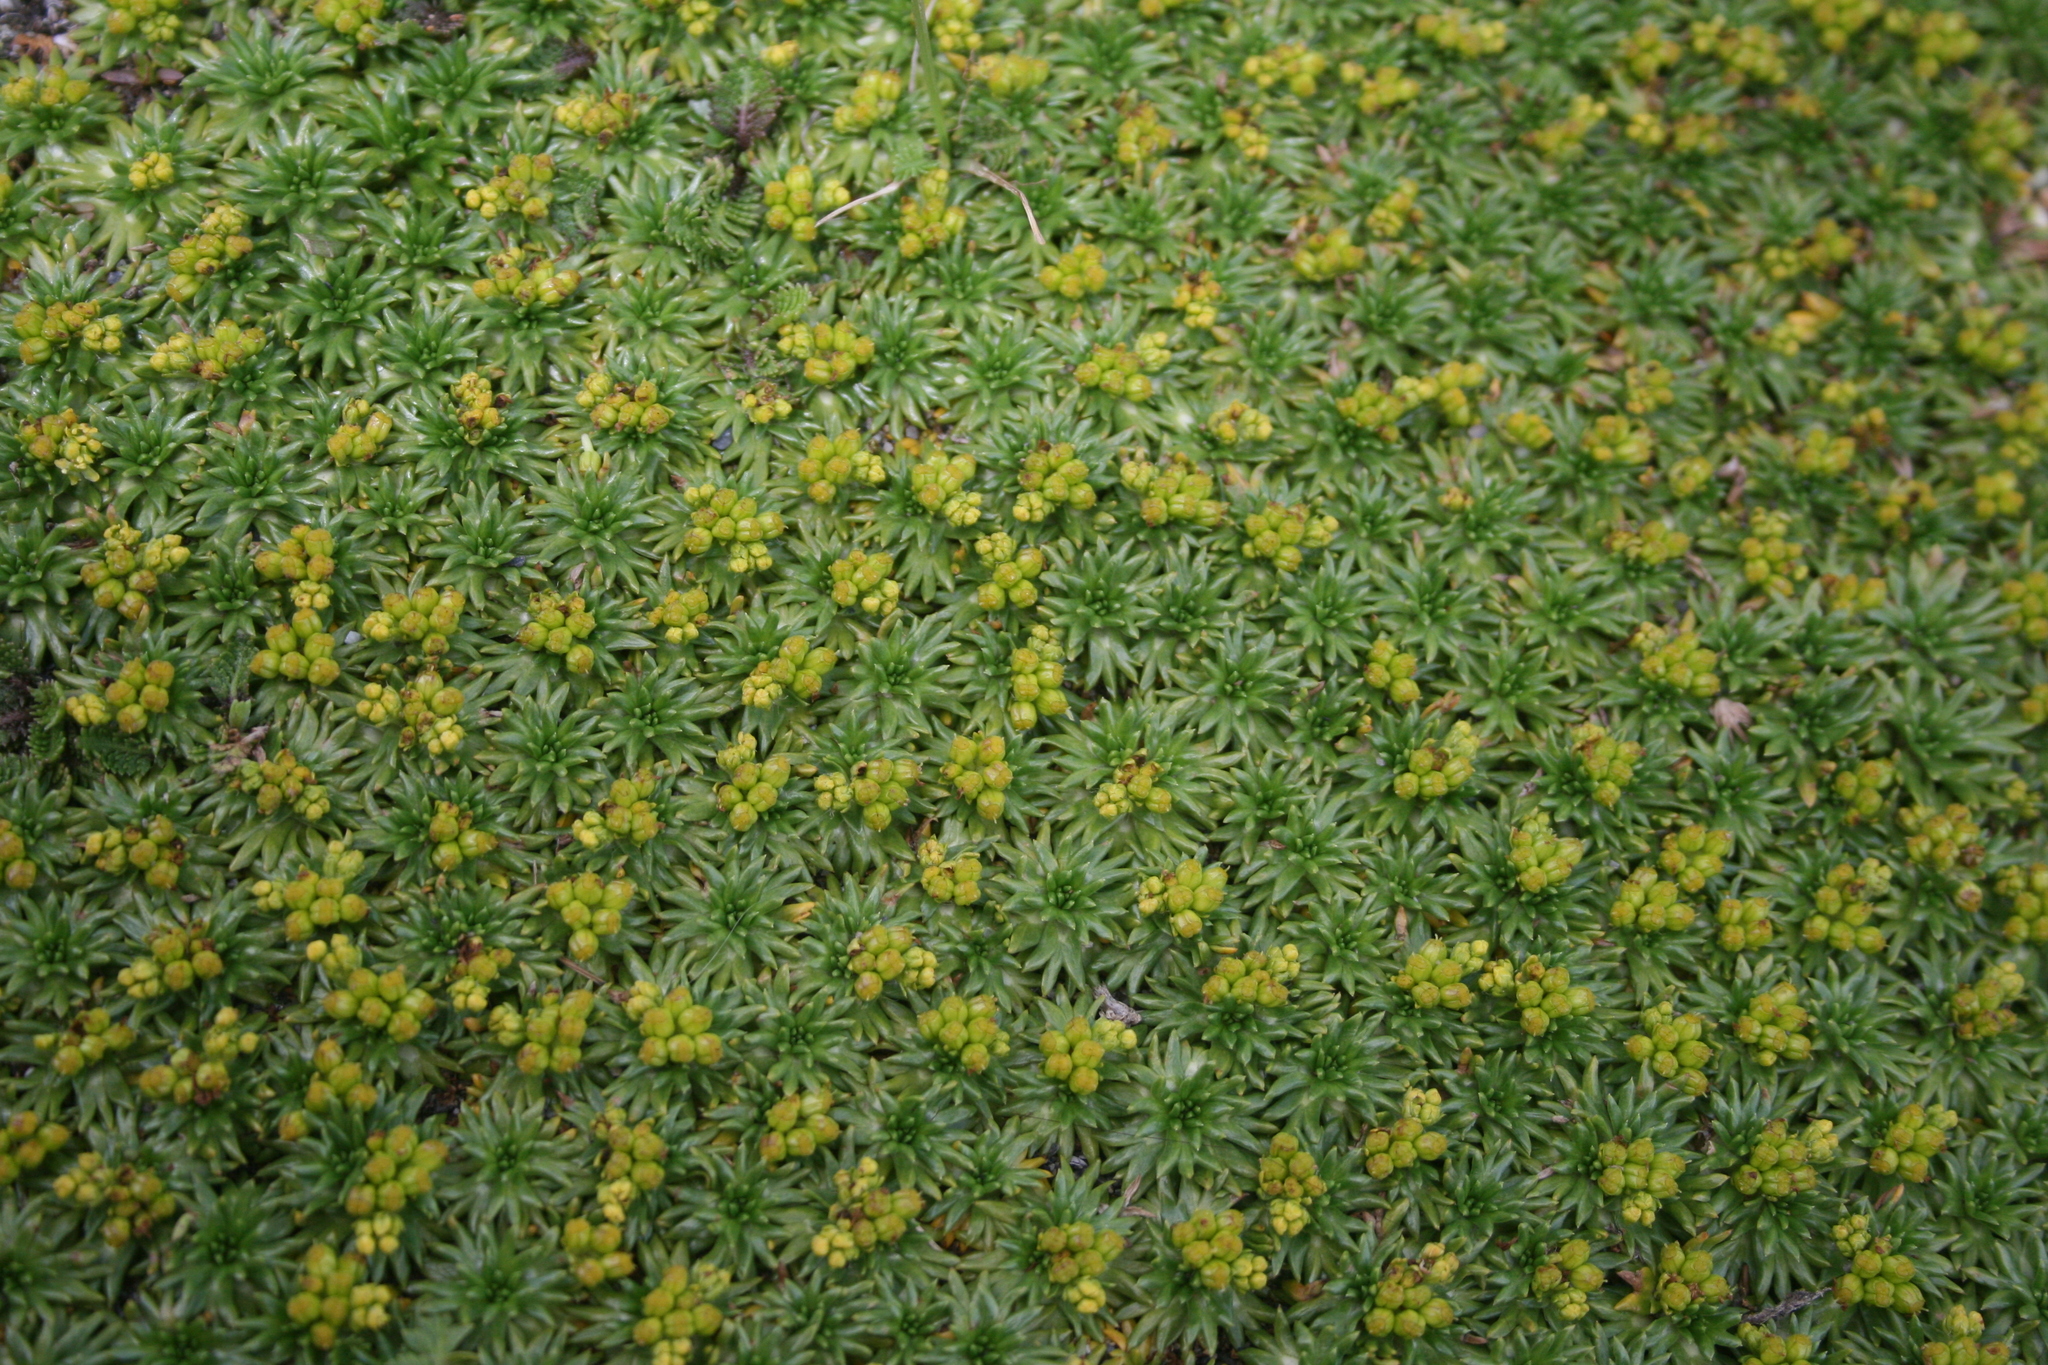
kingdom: Plantae
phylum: Tracheophyta
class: Magnoliopsida
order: Apiales
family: Apiaceae
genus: Azorella
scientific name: Azorella trifurcata
